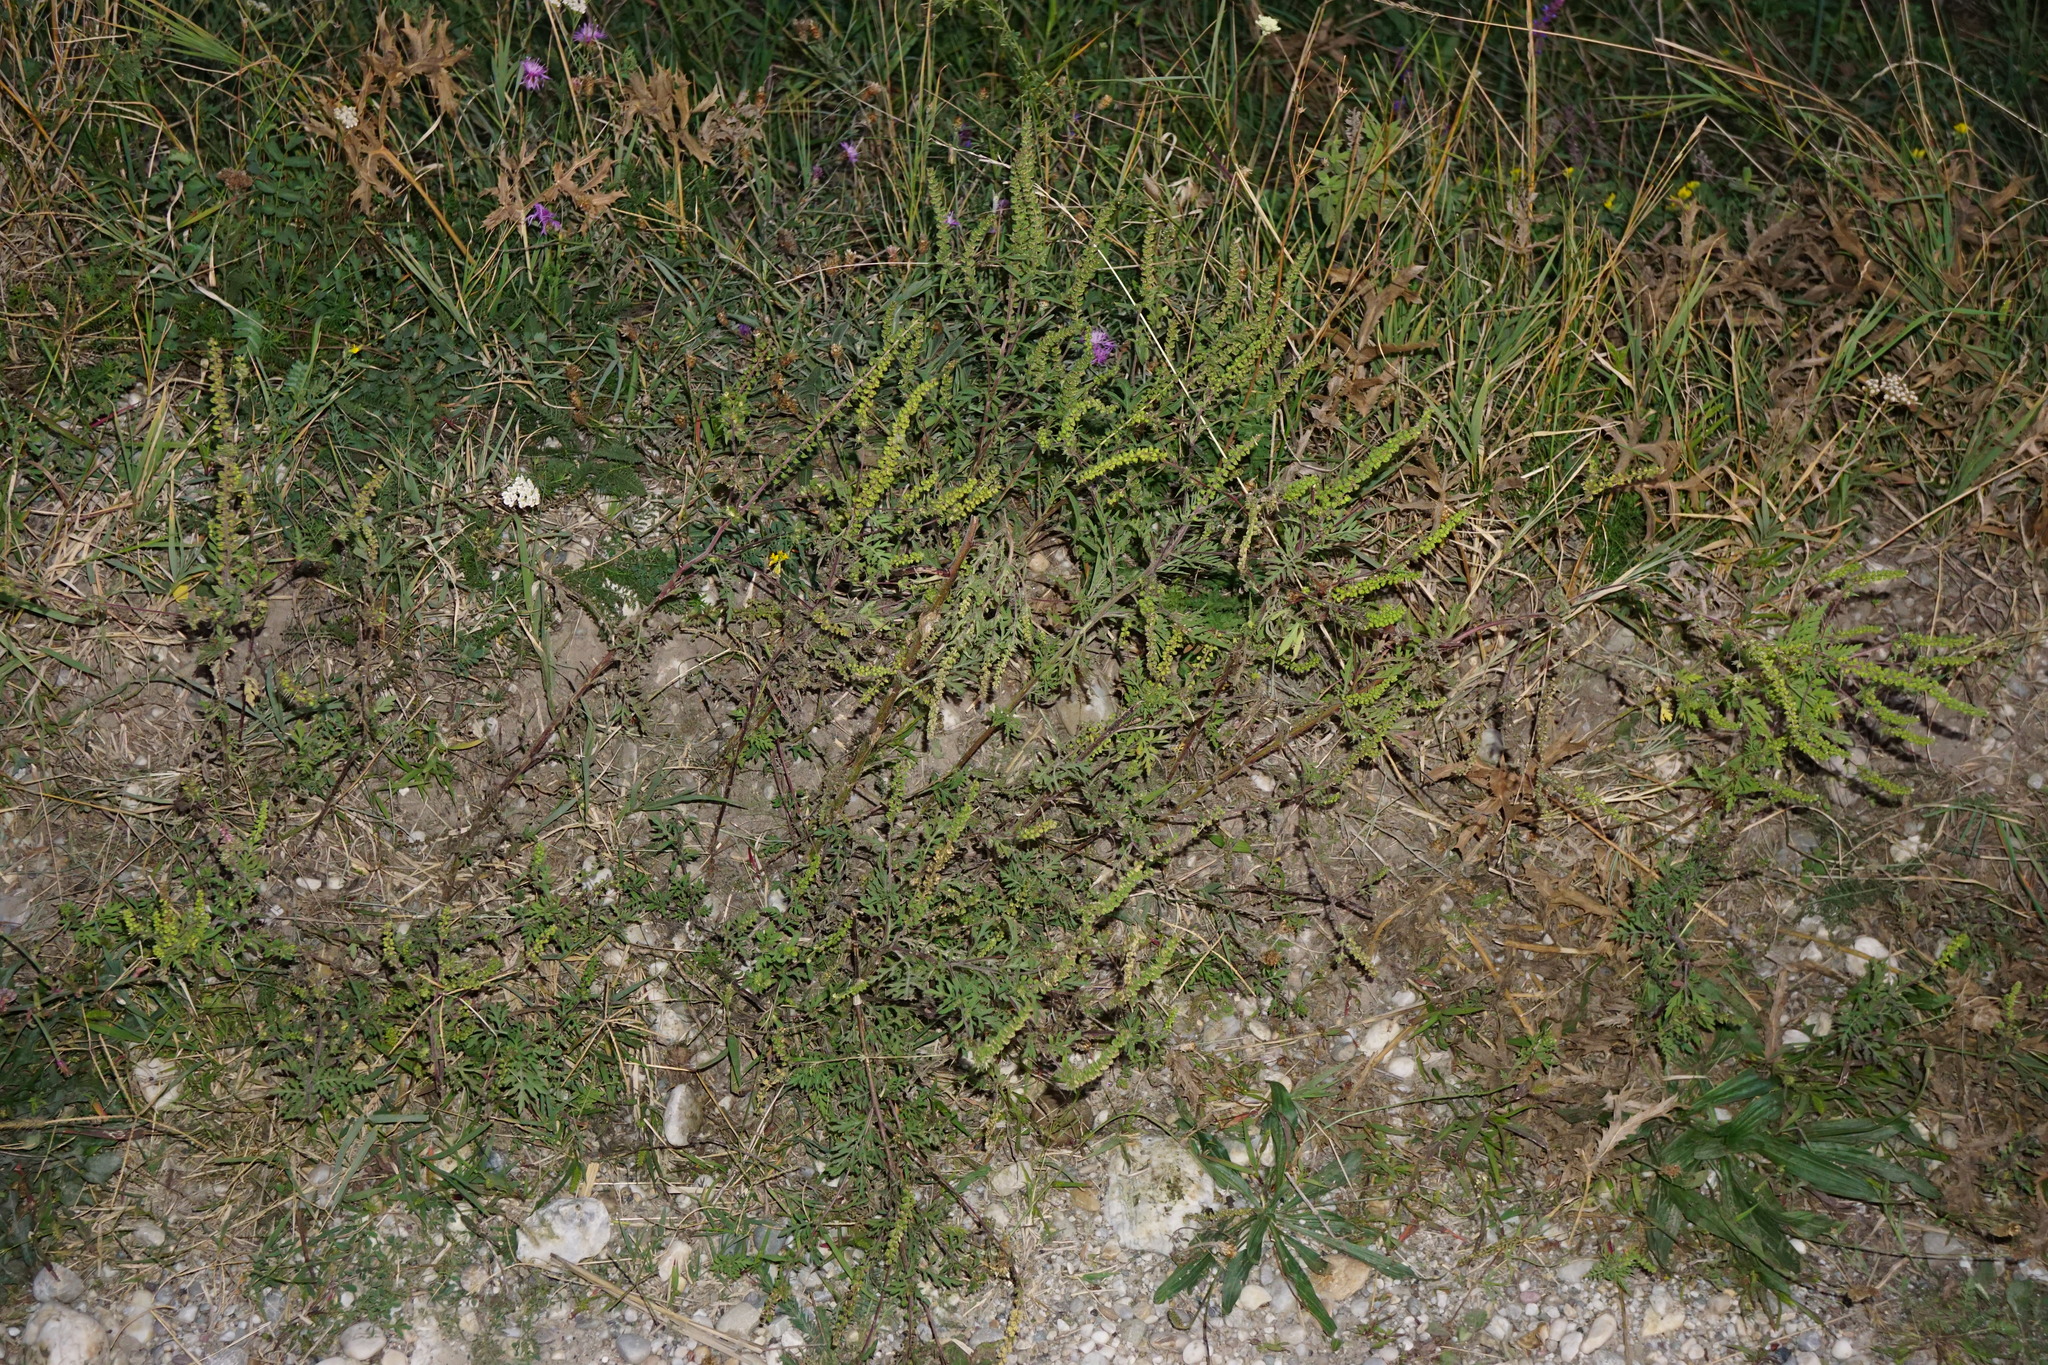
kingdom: Plantae
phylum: Tracheophyta
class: Magnoliopsida
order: Asterales
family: Asteraceae
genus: Ambrosia
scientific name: Ambrosia artemisiifolia
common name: Annual ragweed
